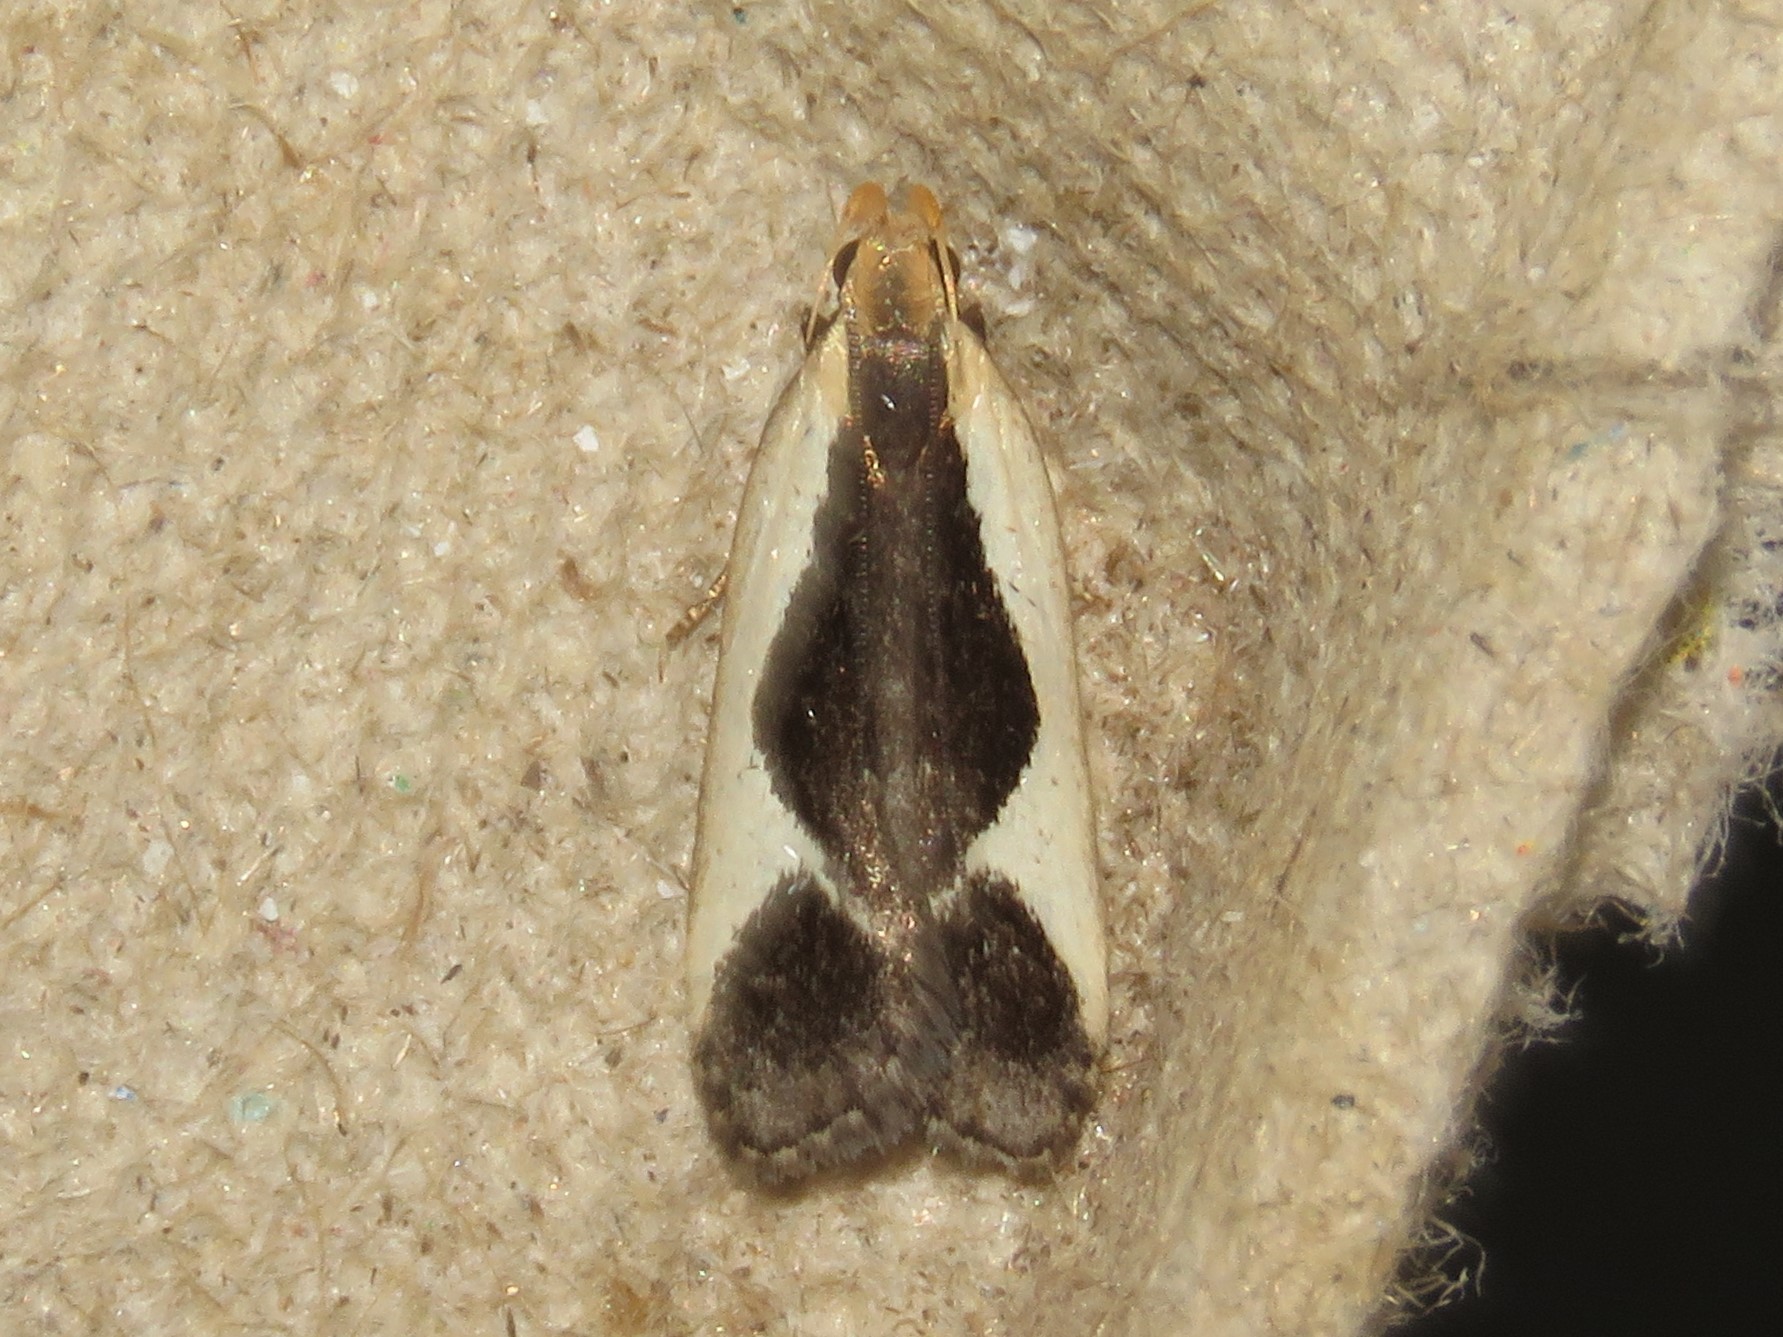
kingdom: Animalia
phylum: Arthropoda
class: Insecta
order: Lepidoptera
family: Gelechiidae
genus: Dichomeris
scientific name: Dichomeris flavocostella
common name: Cream-edged dichomeris moth
